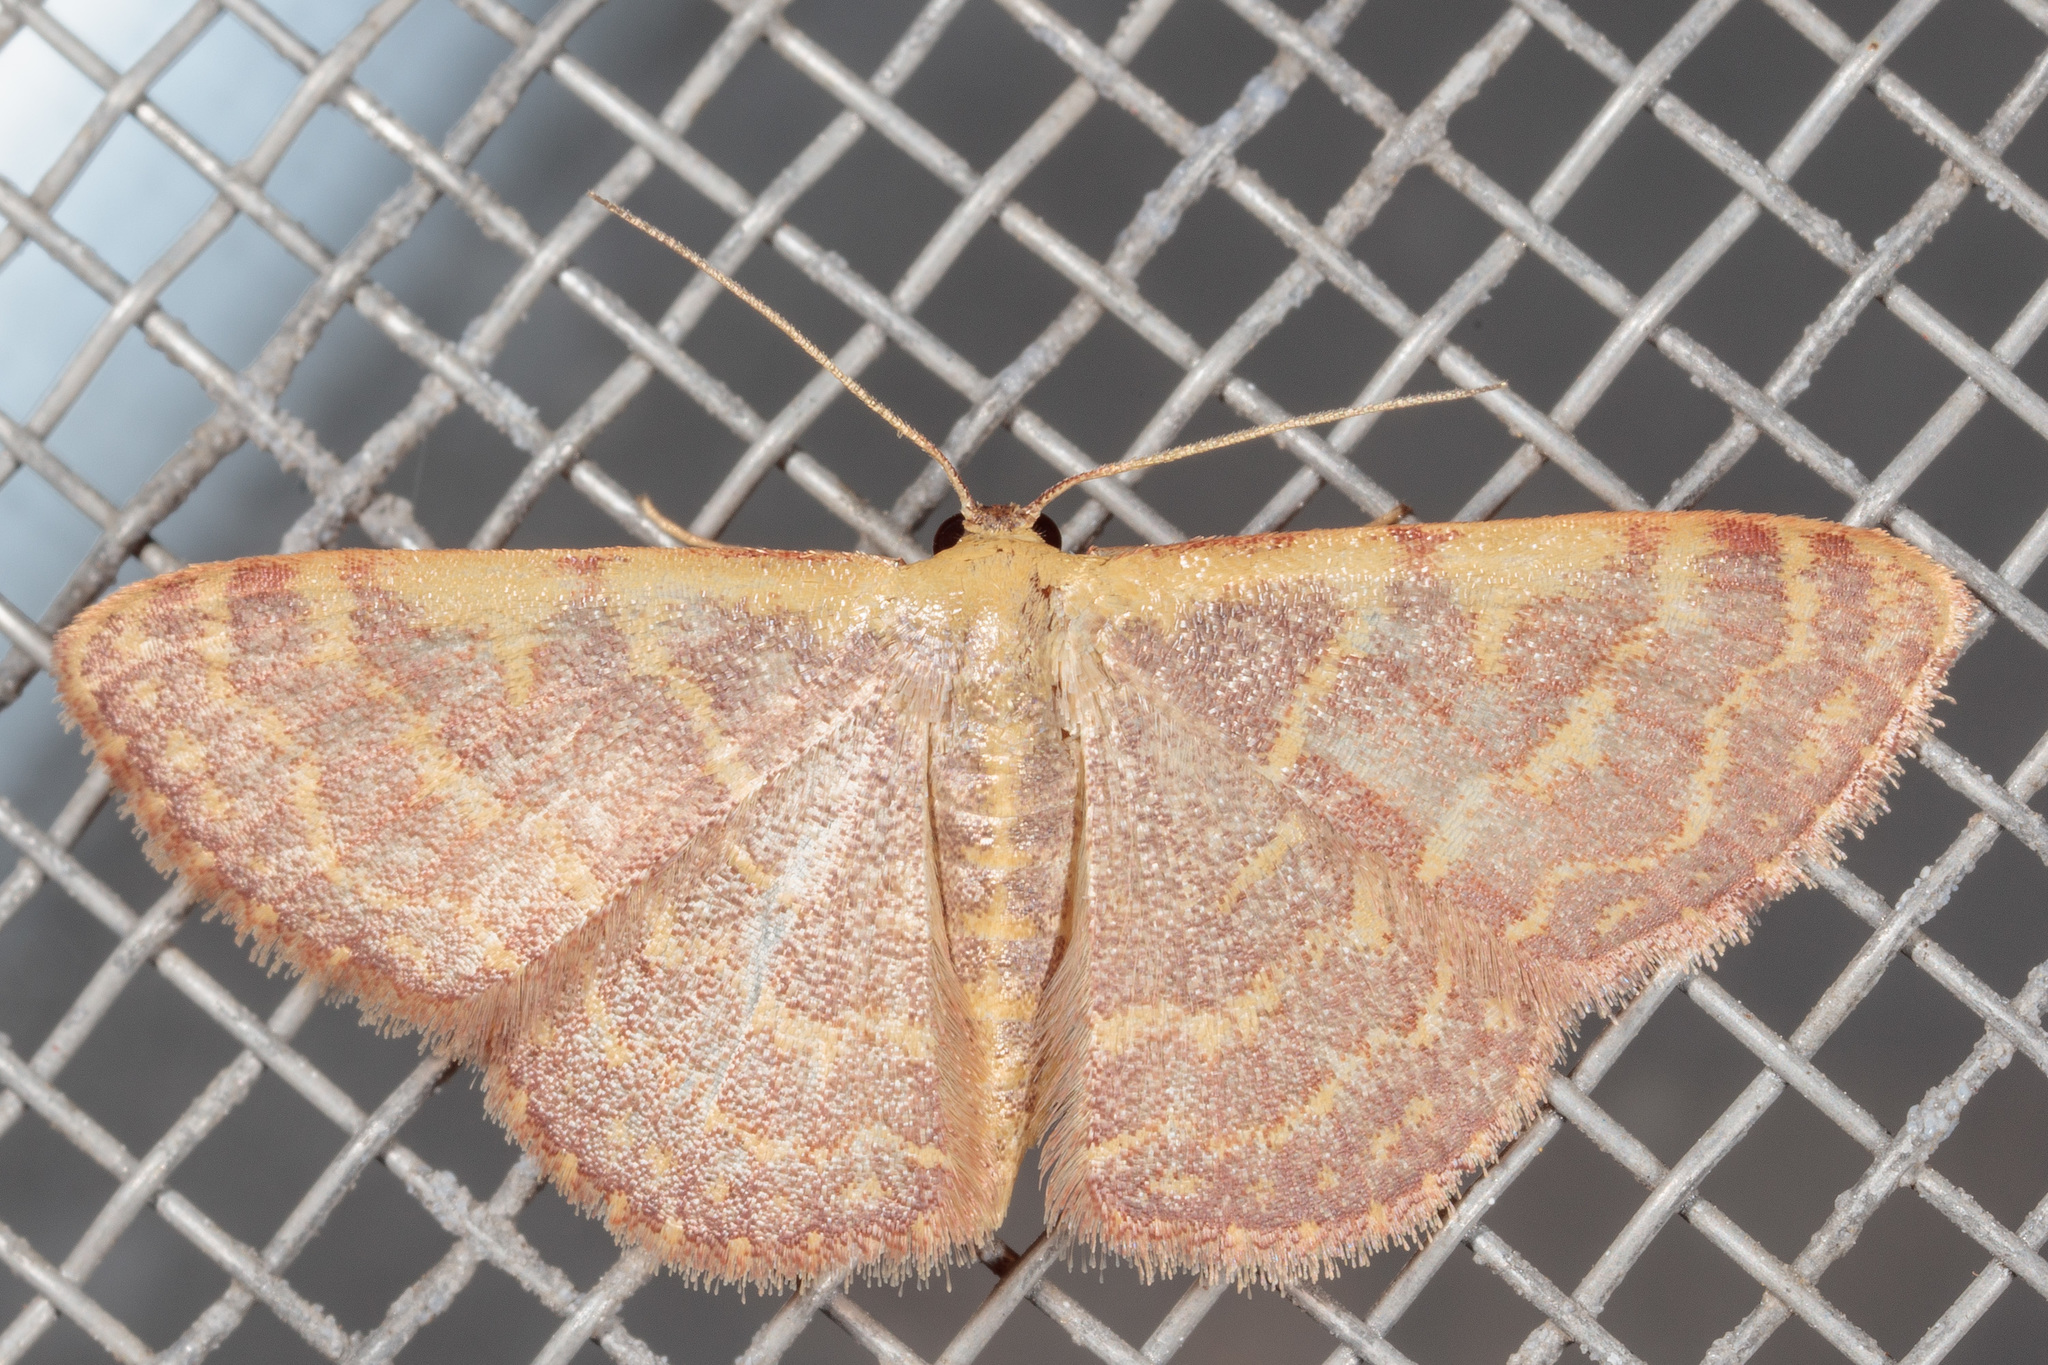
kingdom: Animalia
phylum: Arthropoda
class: Insecta
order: Lepidoptera
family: Geometridae
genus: Leptostales
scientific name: Leptostales pannaria
